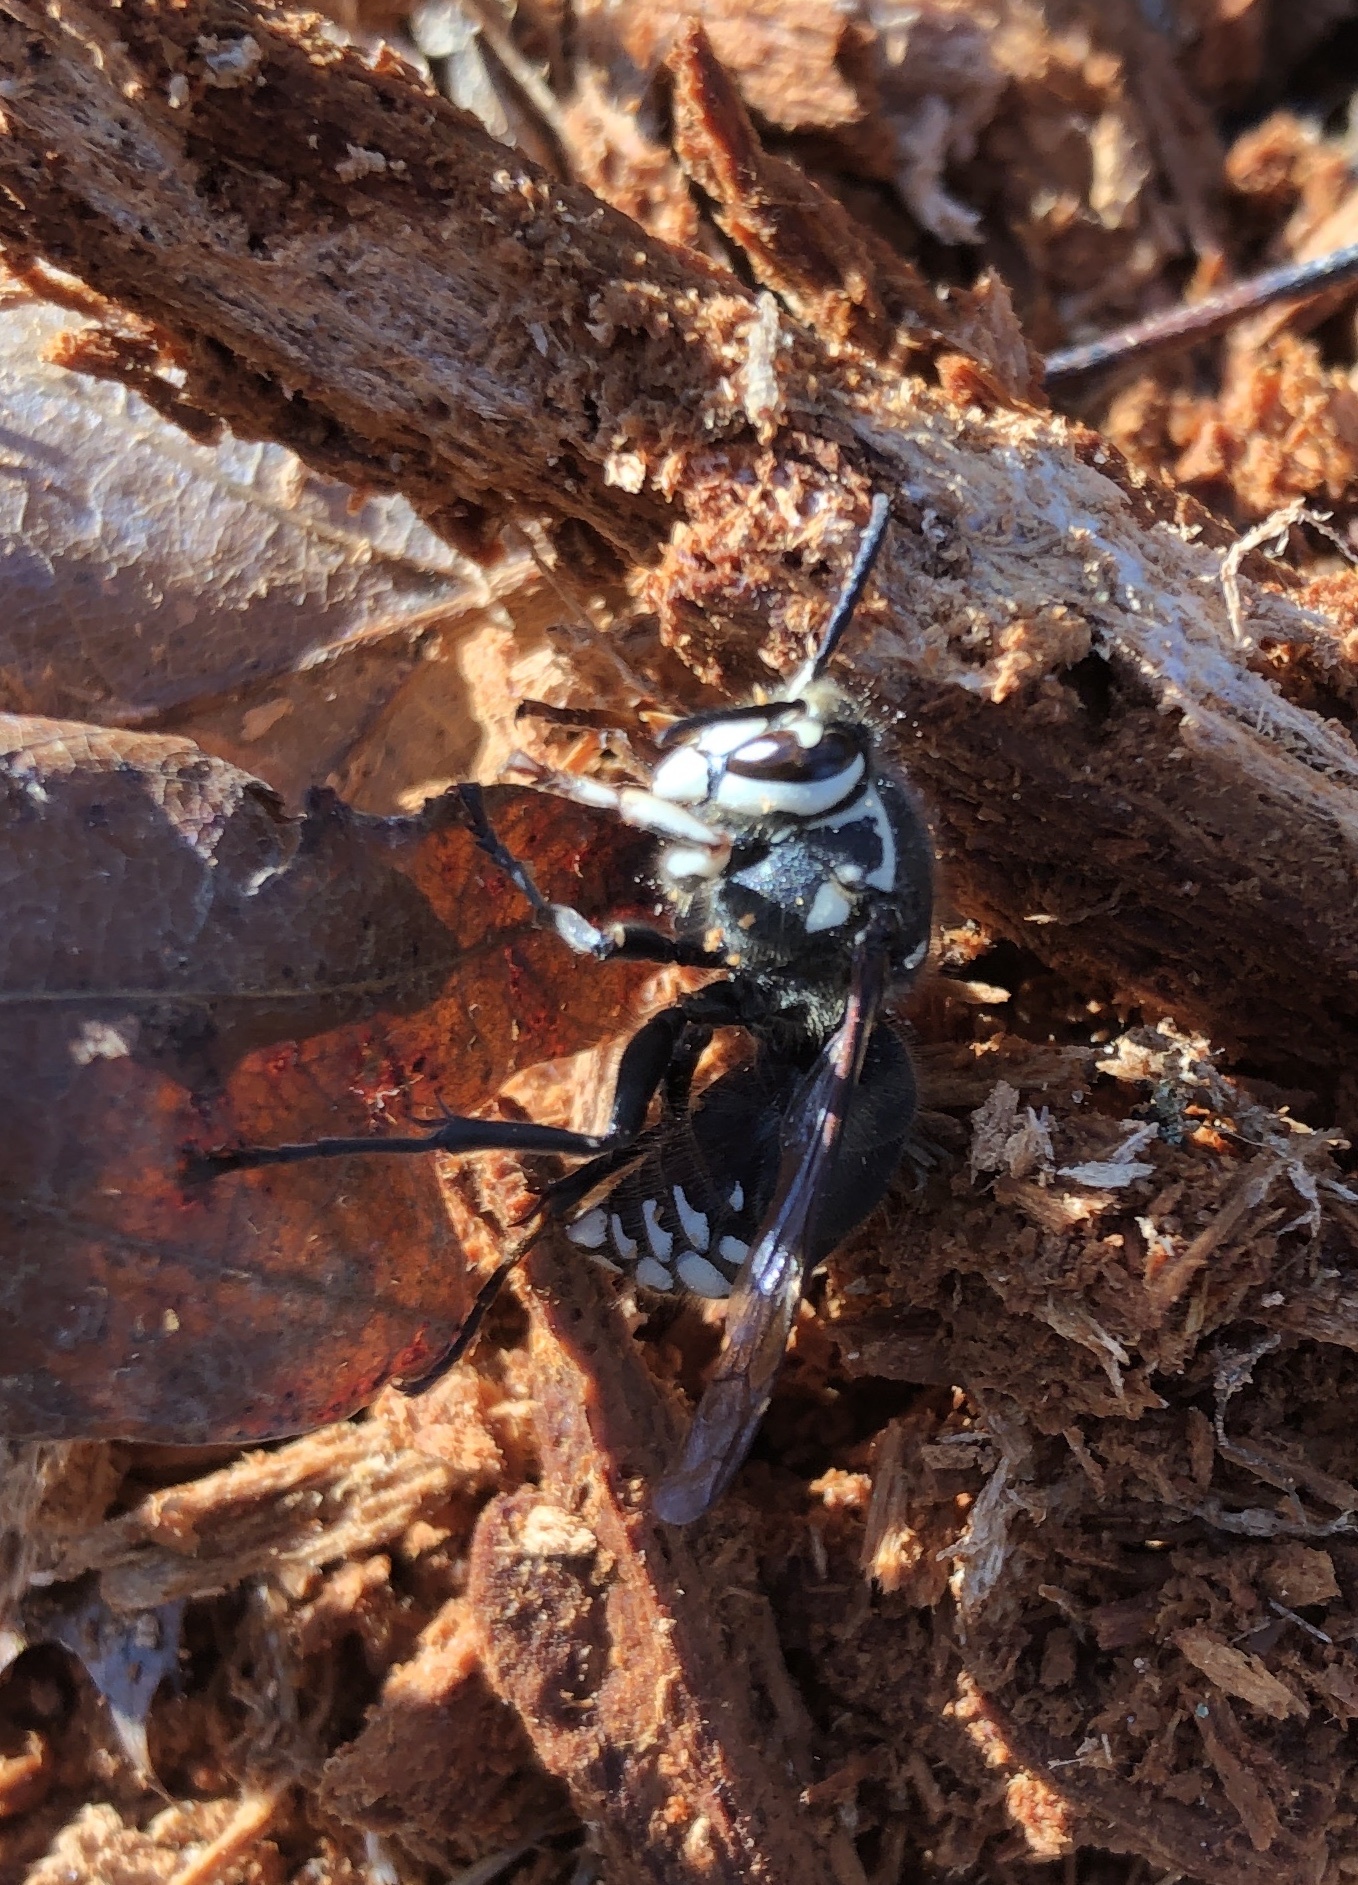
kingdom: Animalia
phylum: Arthropoda
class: Insecta
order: Hymenoptera
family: Vespidae
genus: Dolichovespula
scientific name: Dolichovespula maculata
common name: Bald-faced hornet
